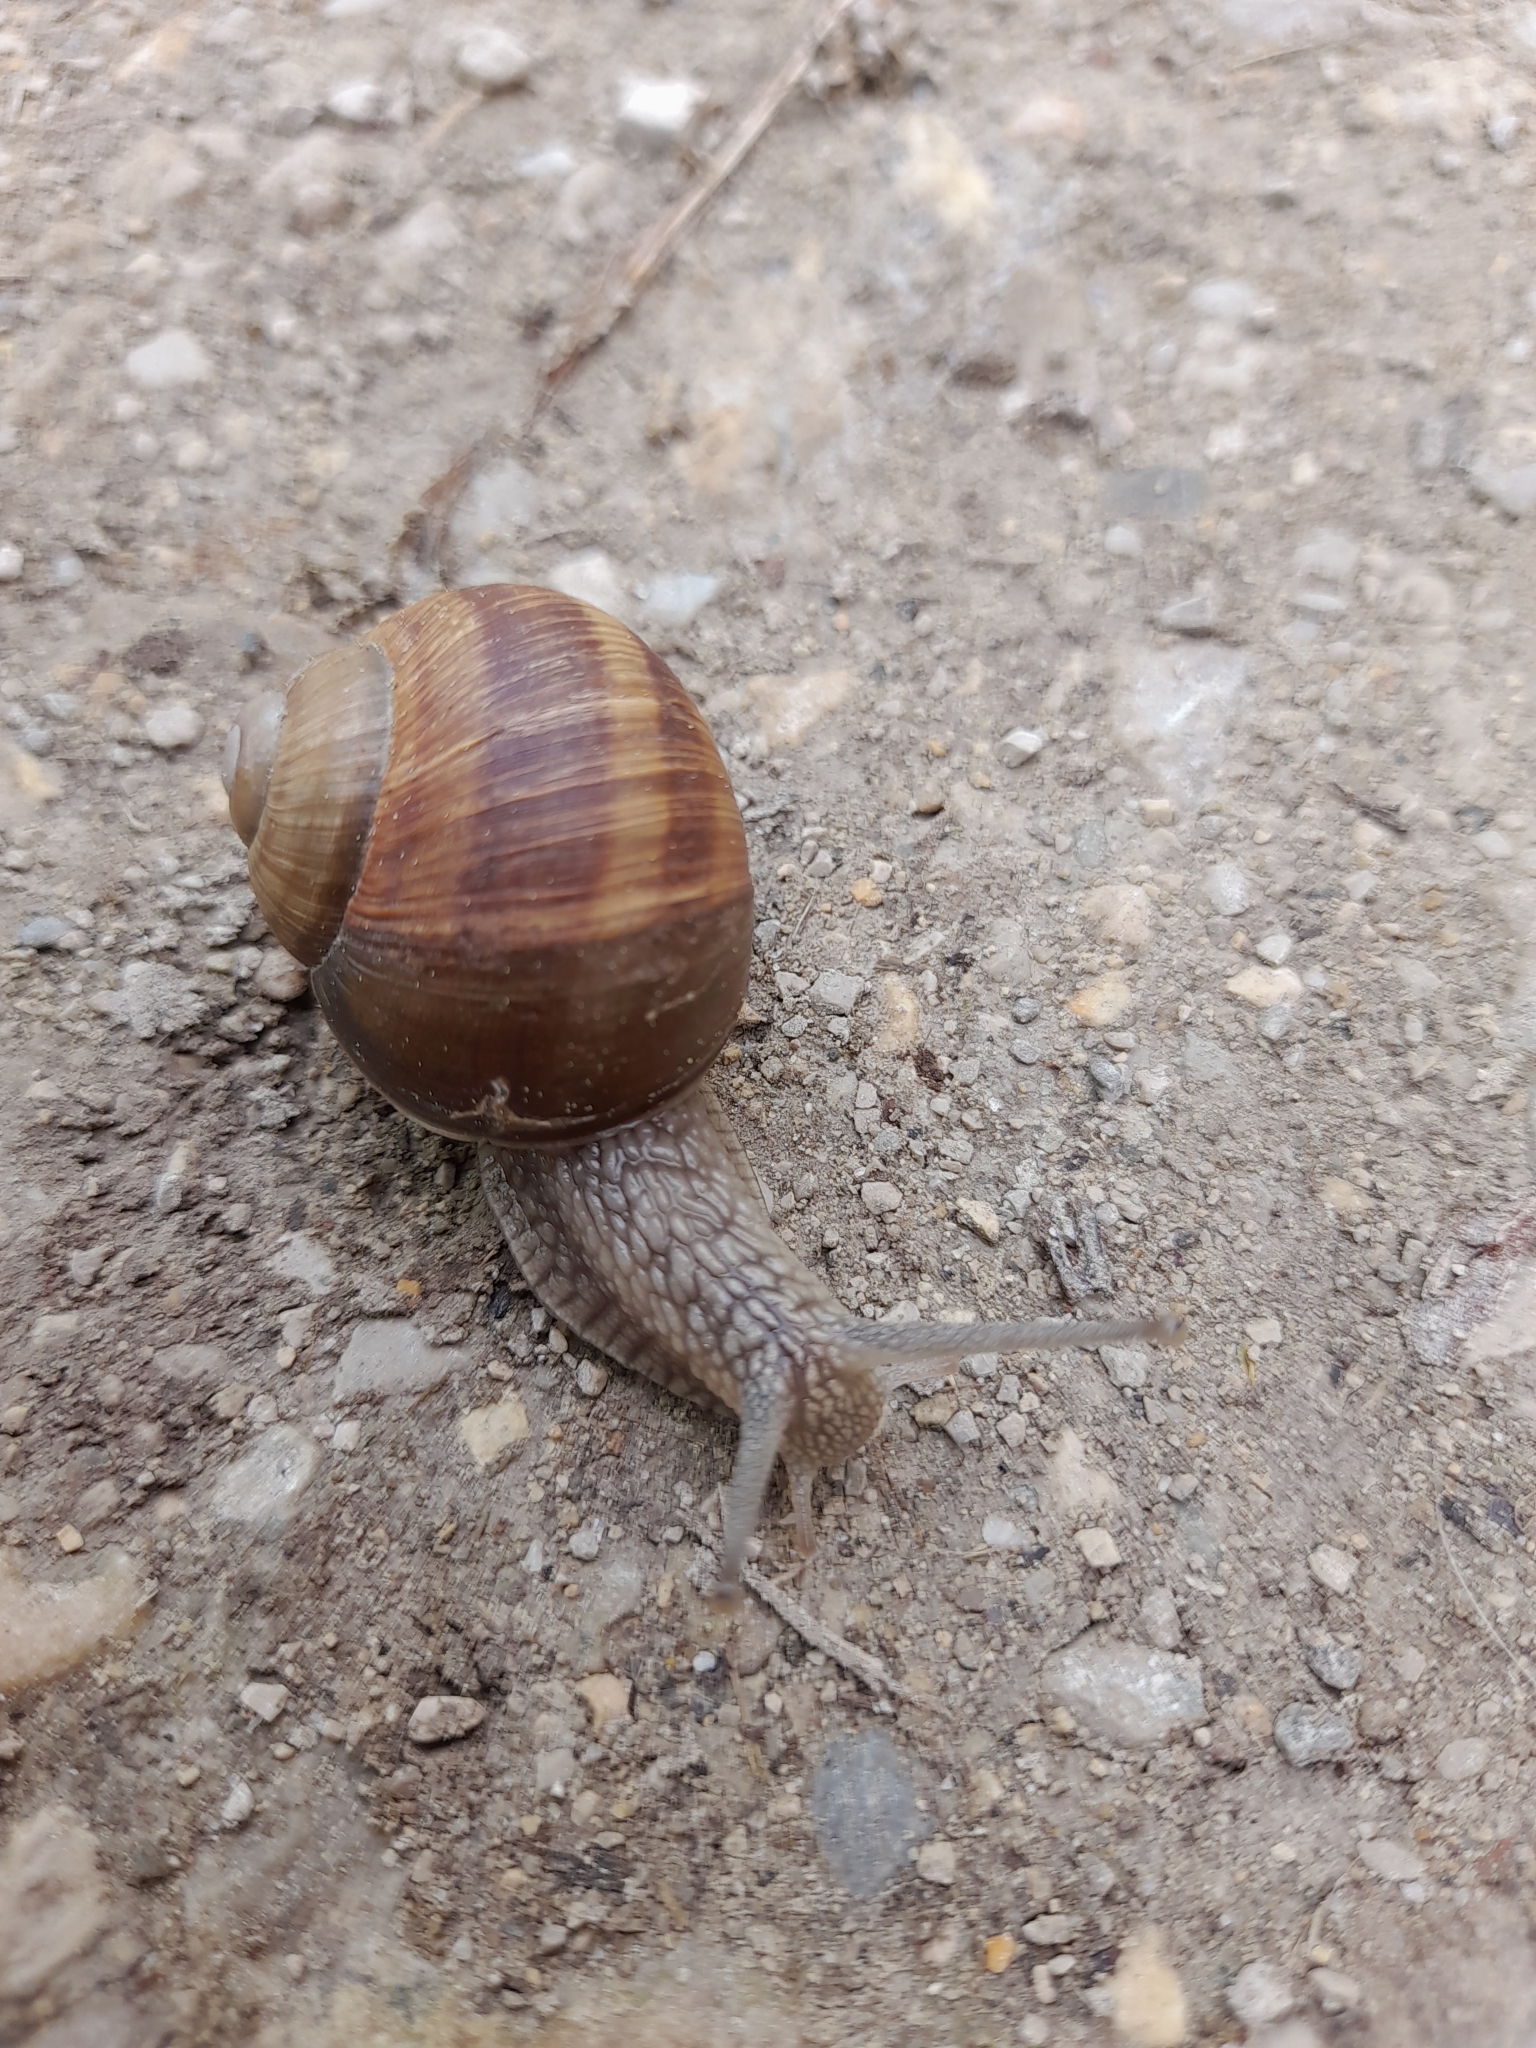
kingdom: Animalia
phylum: Mollusca
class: Gastropoda
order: Stylommatophora
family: Helicidae
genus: Helix
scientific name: Helix pomatia
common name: Roman snail
